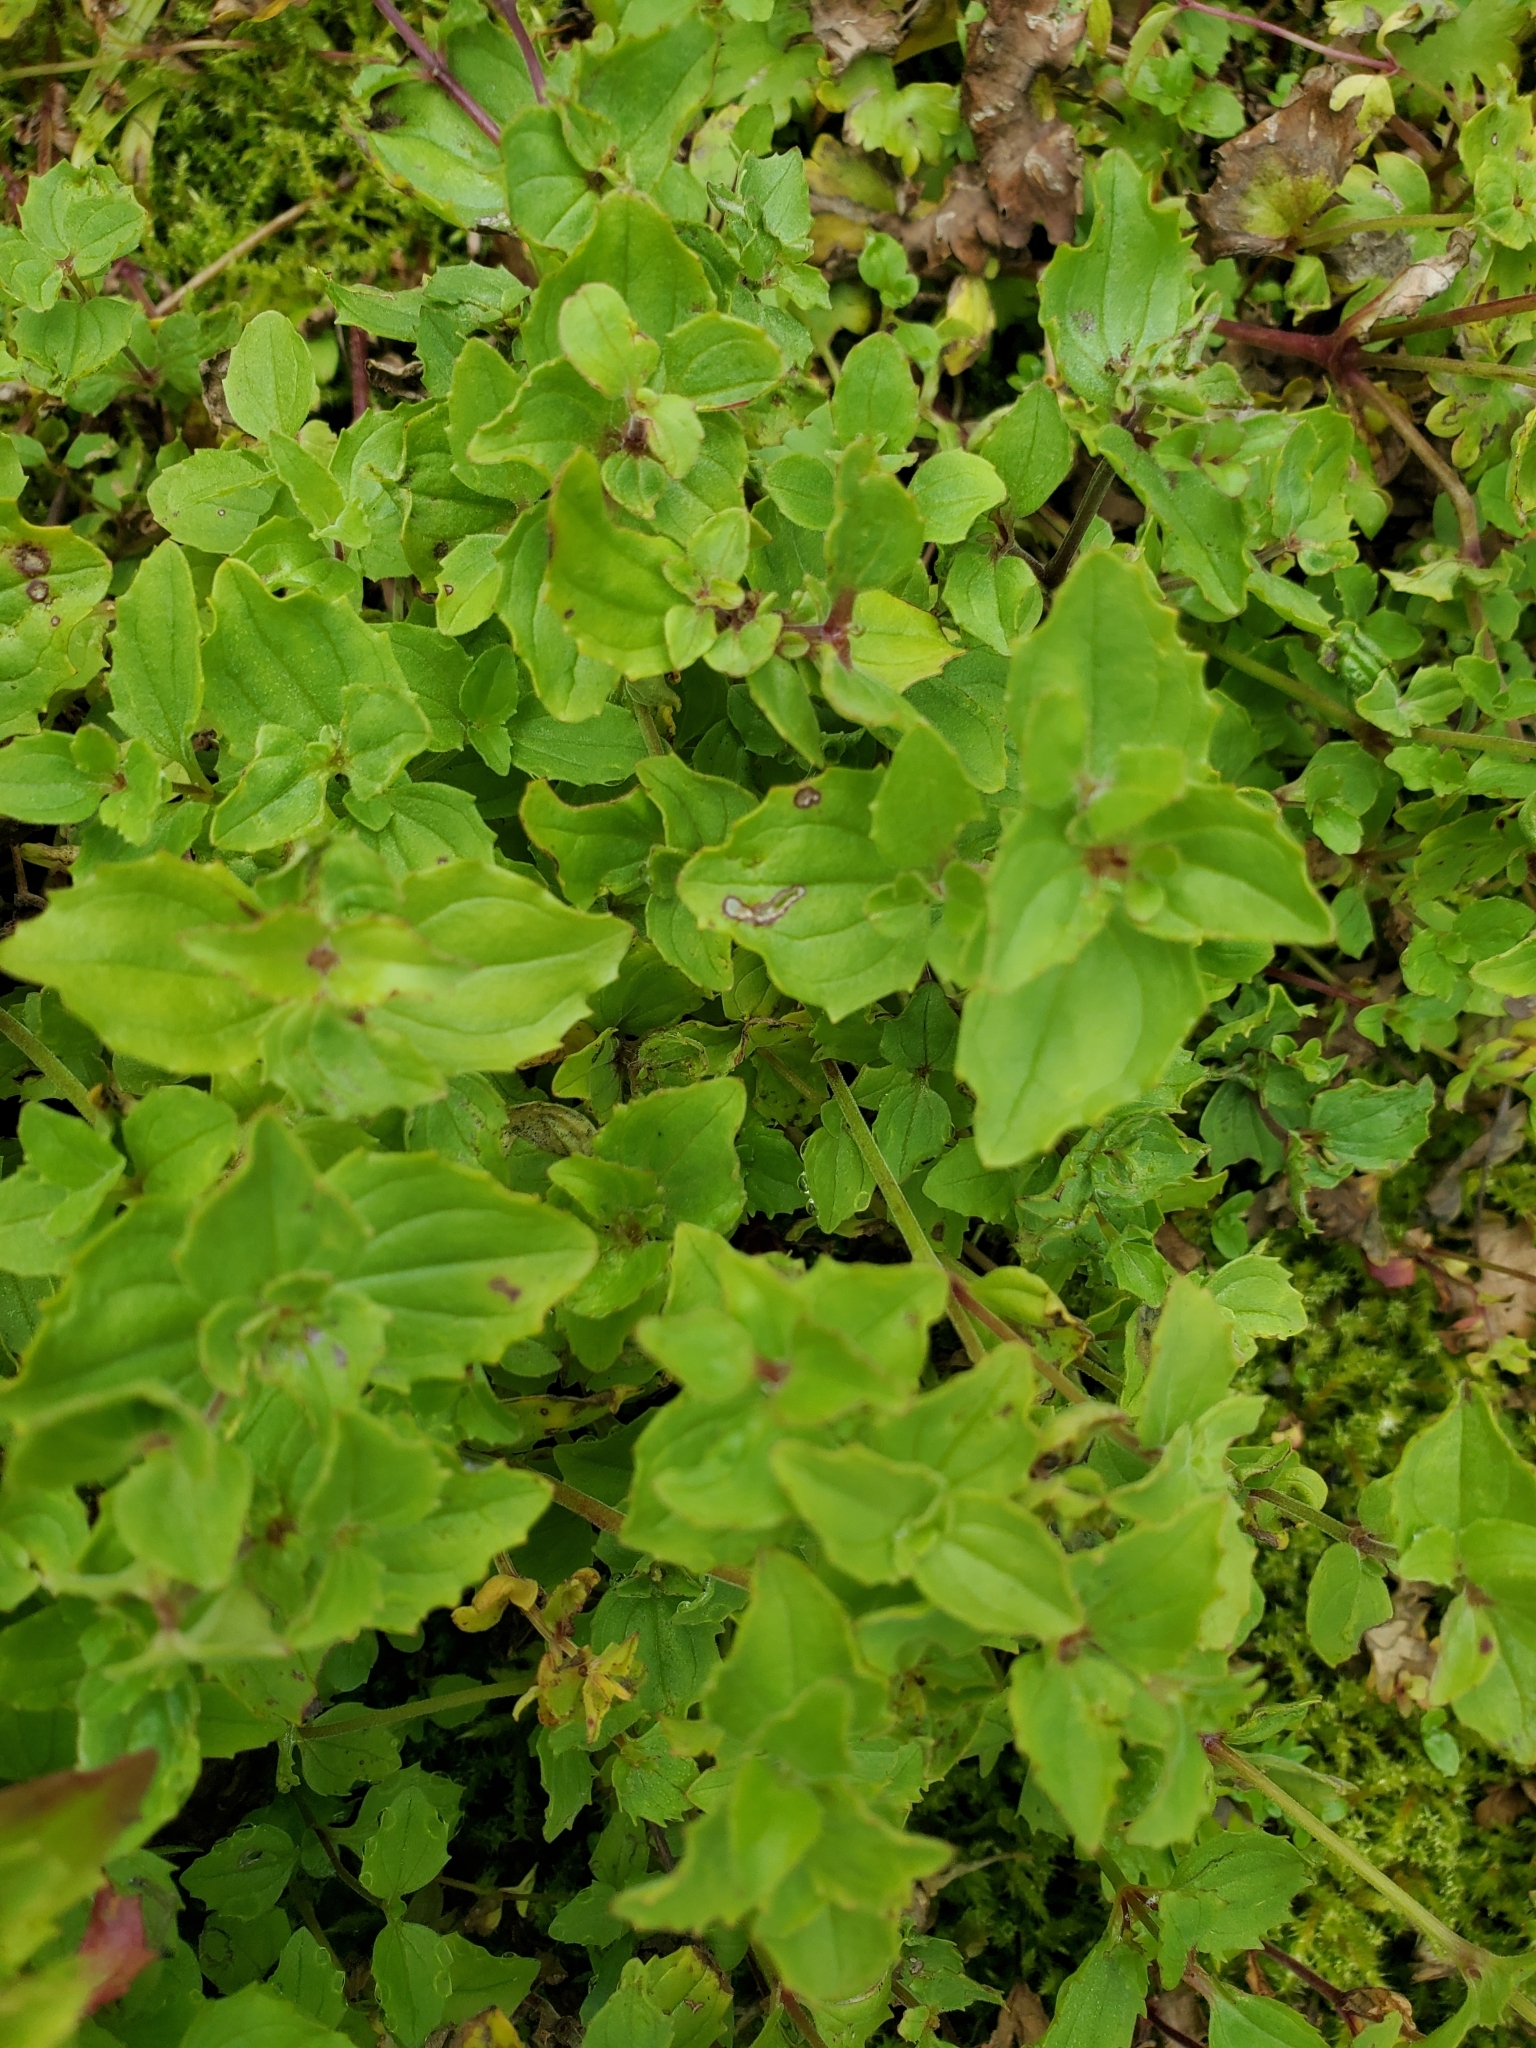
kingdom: Plantae
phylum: Tracheophyta
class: Magnoliopsida
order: Lamiales
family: Phrymaceae
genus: Erythranthe
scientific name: Erythranthe veronicifolia
